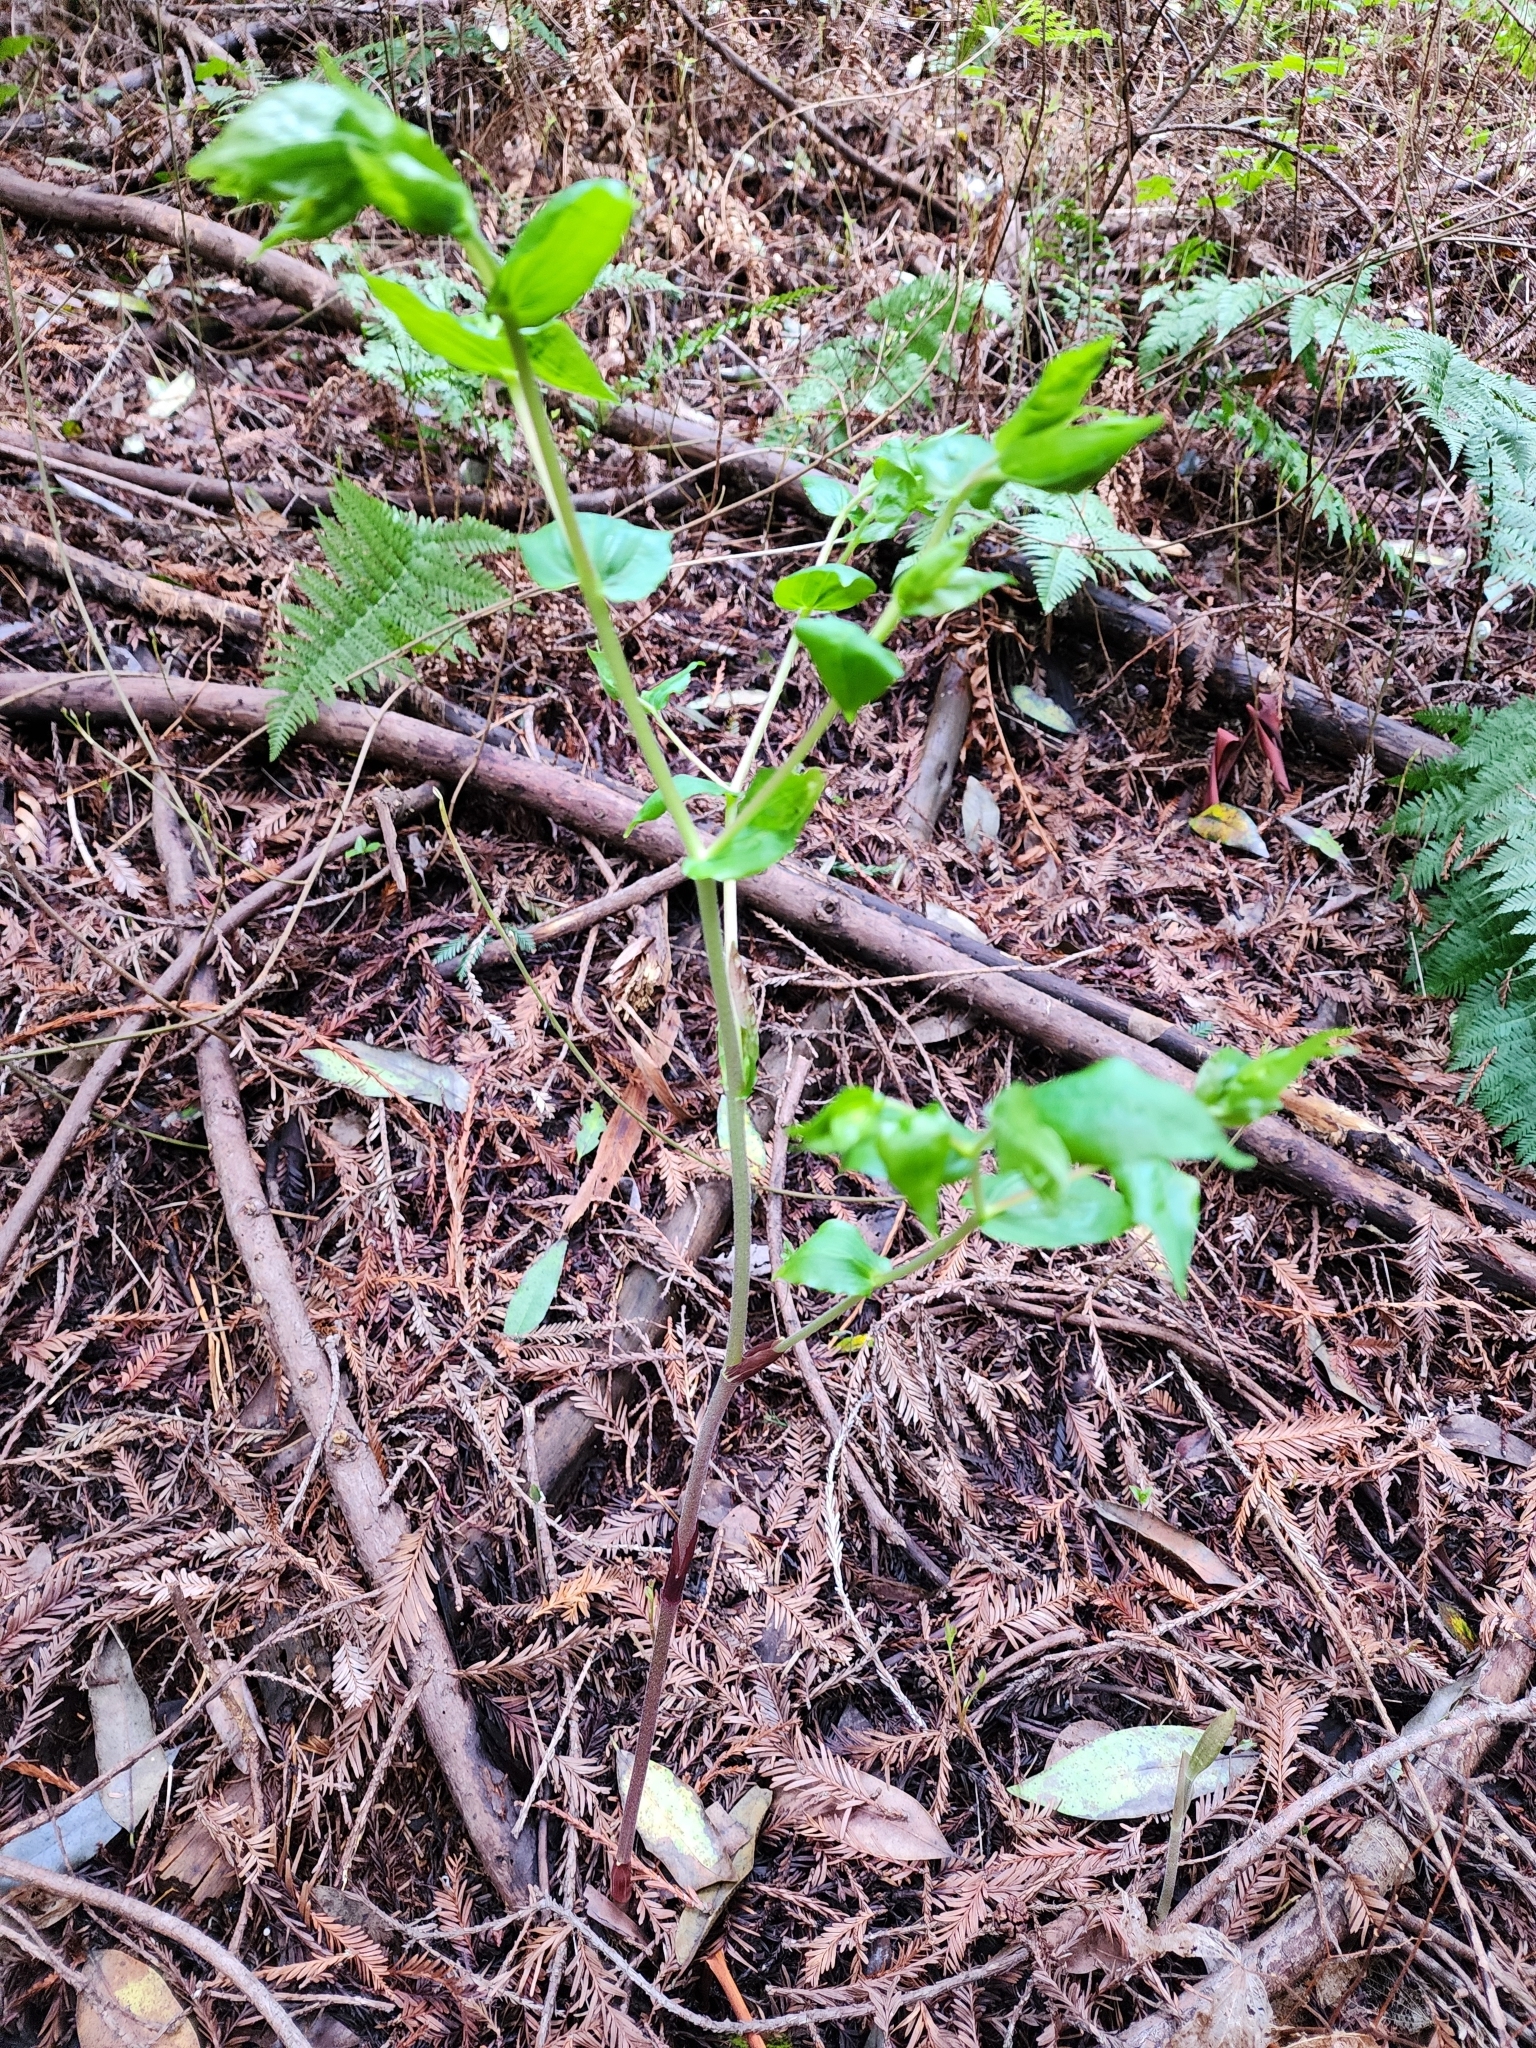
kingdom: Plantae
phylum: Tracheophyta
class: Liliopsida
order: Liliales
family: Liliaceae
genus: Prosartes
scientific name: Prosartes hookeri
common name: Fairy-bells
